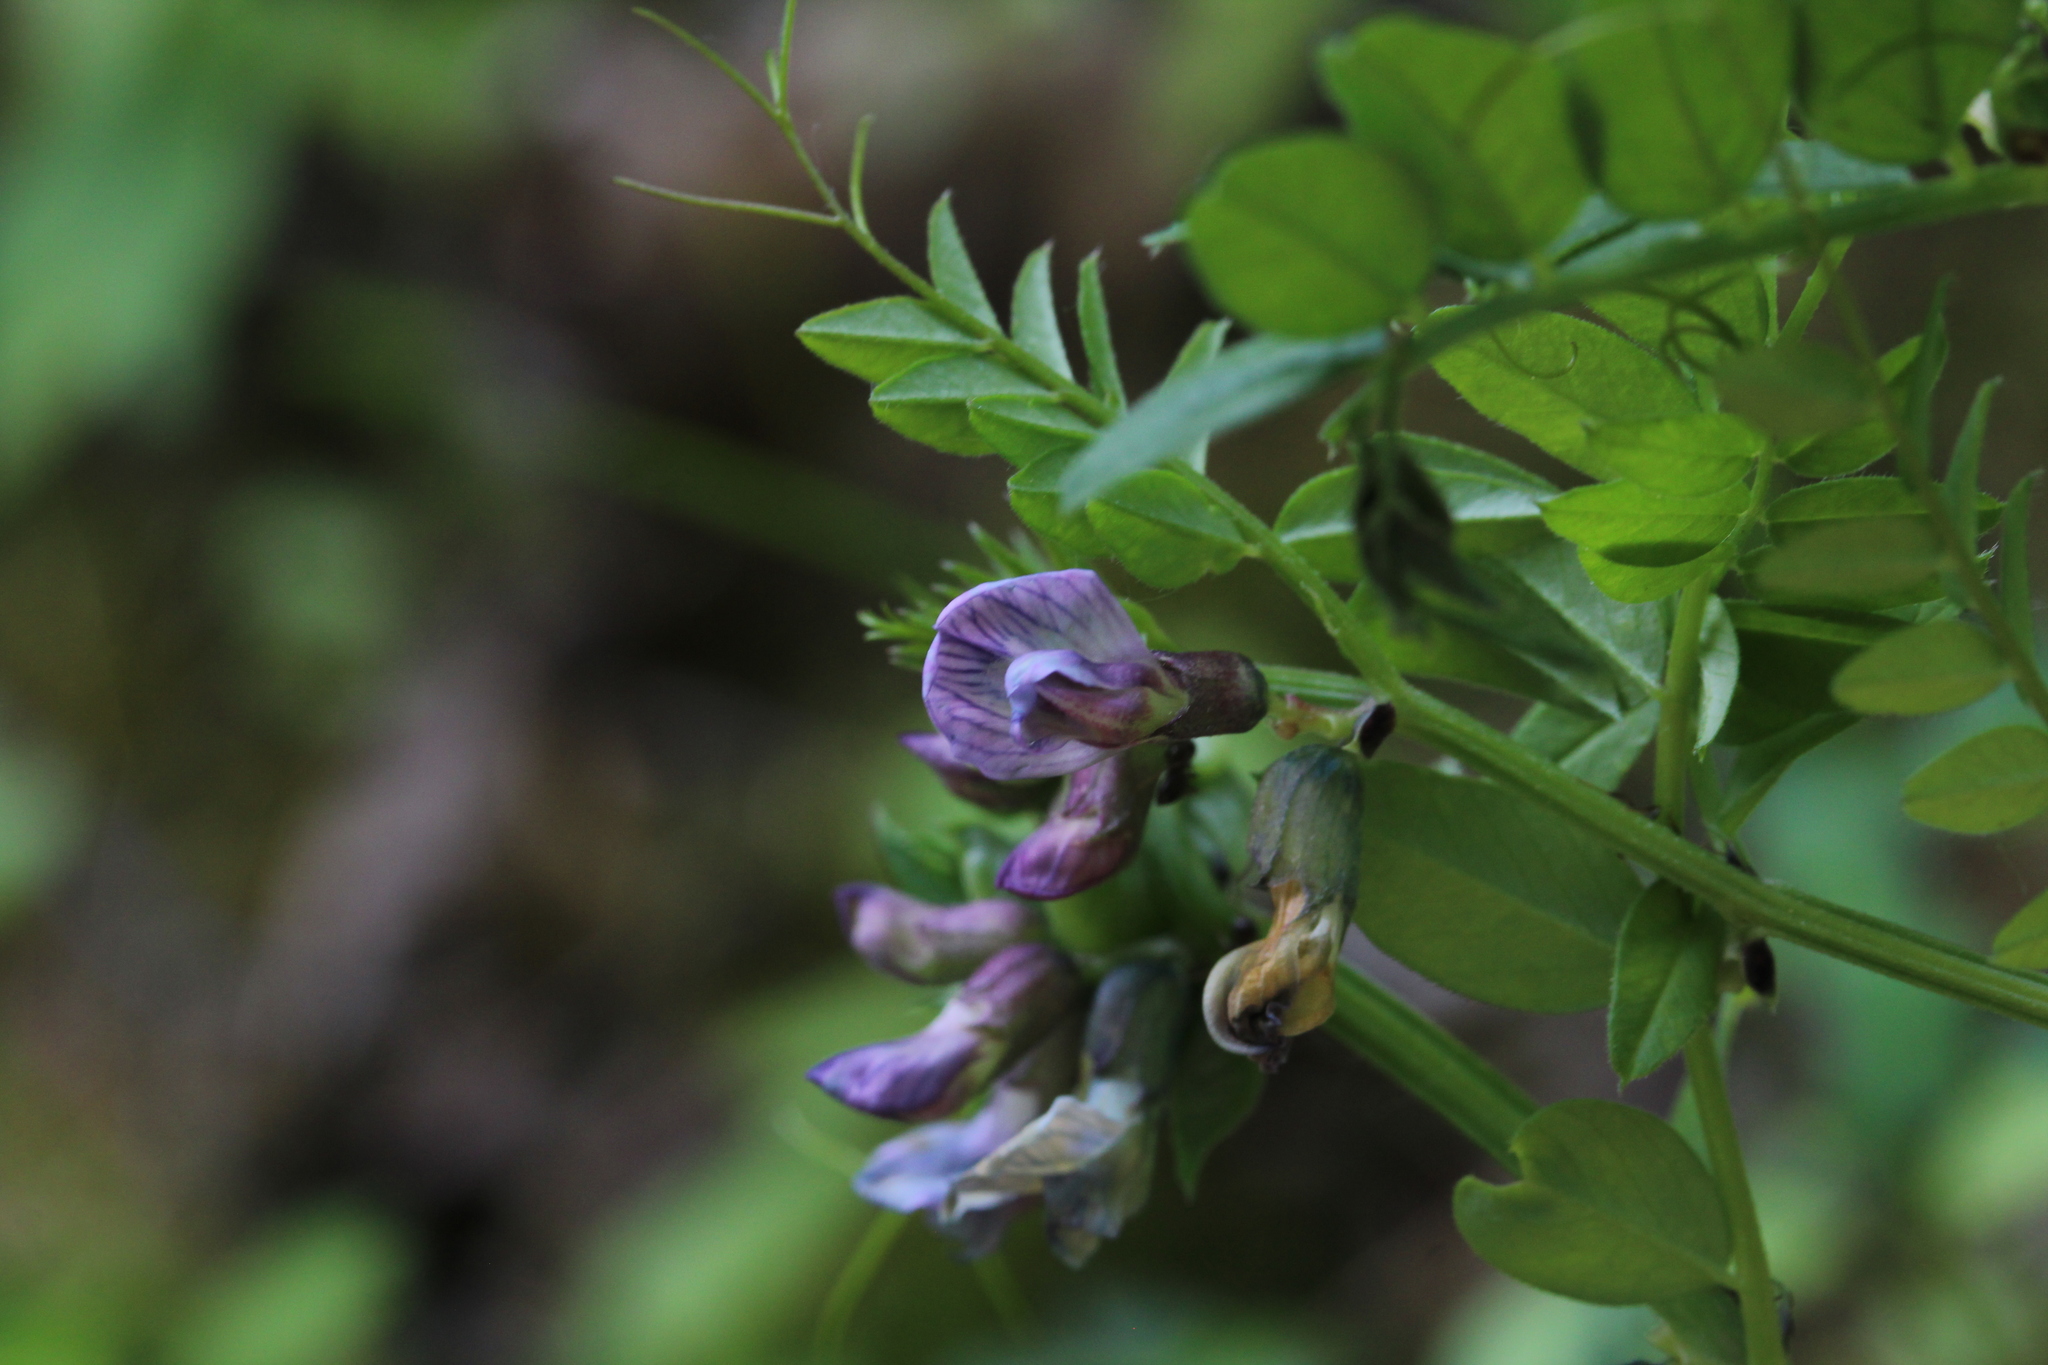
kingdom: Plantae
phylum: Tracheophyta
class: Magnoliopsida
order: Fabales
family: Fabaceae
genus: Vicia
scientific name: Vicia sepium
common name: Bush vetch
